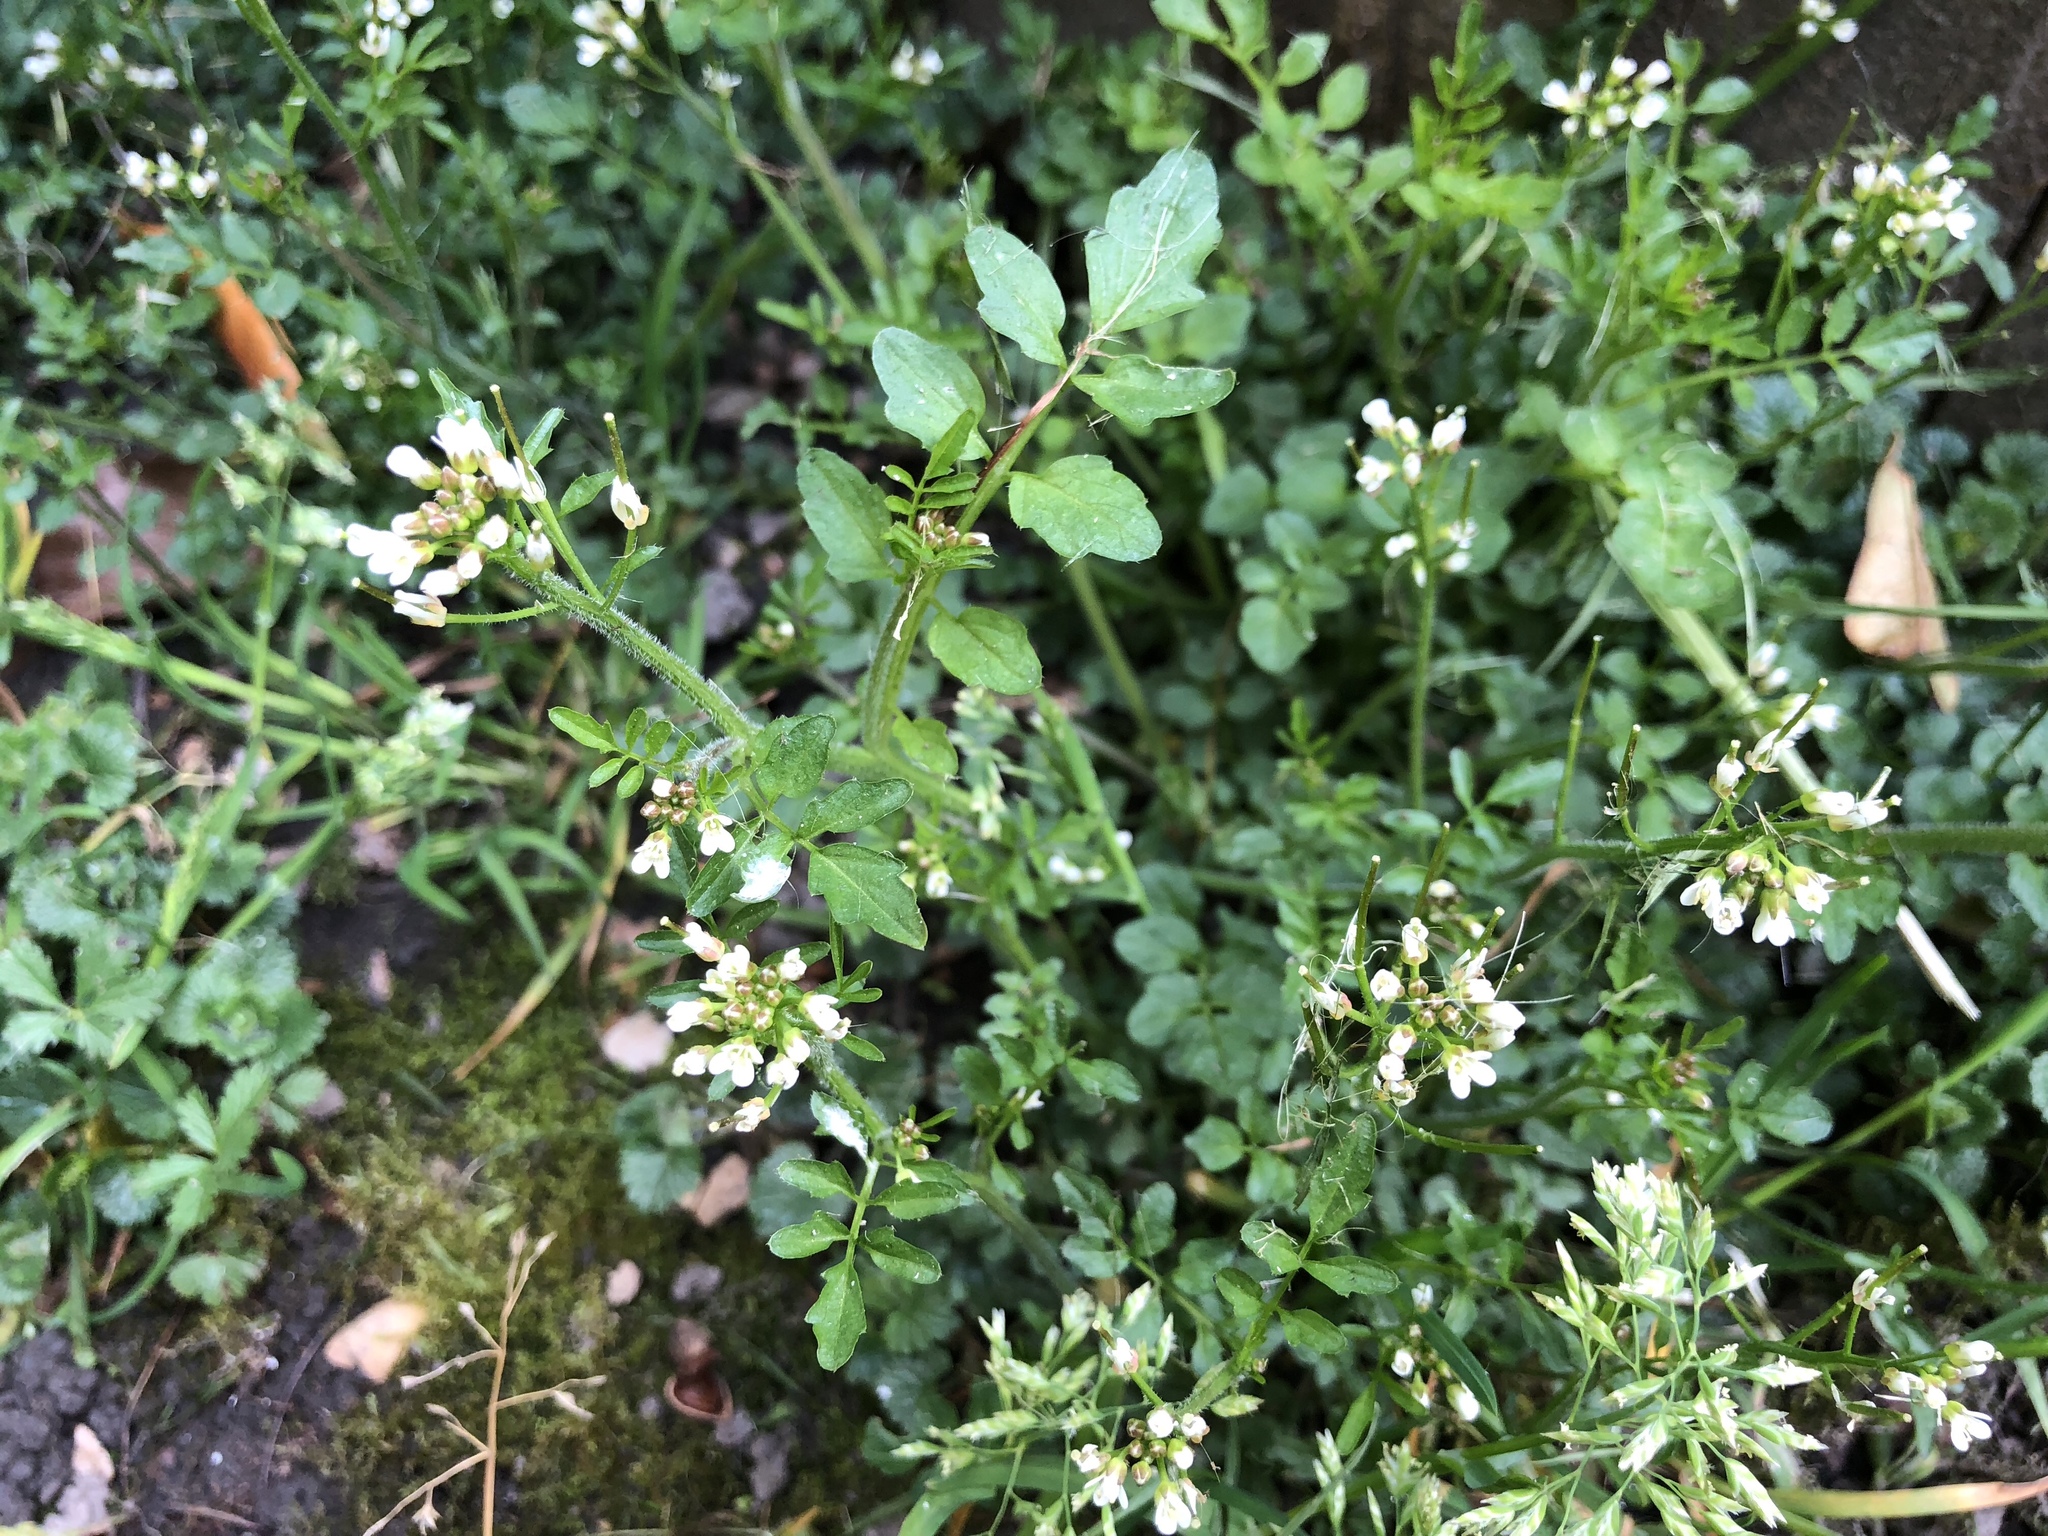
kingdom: Plantae
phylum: Tracheophyta
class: Magnoliopsida
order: Brassicales
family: Brassicaceae
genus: Cardamine
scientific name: Cardamine flexuosa
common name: Woodland bittercress
